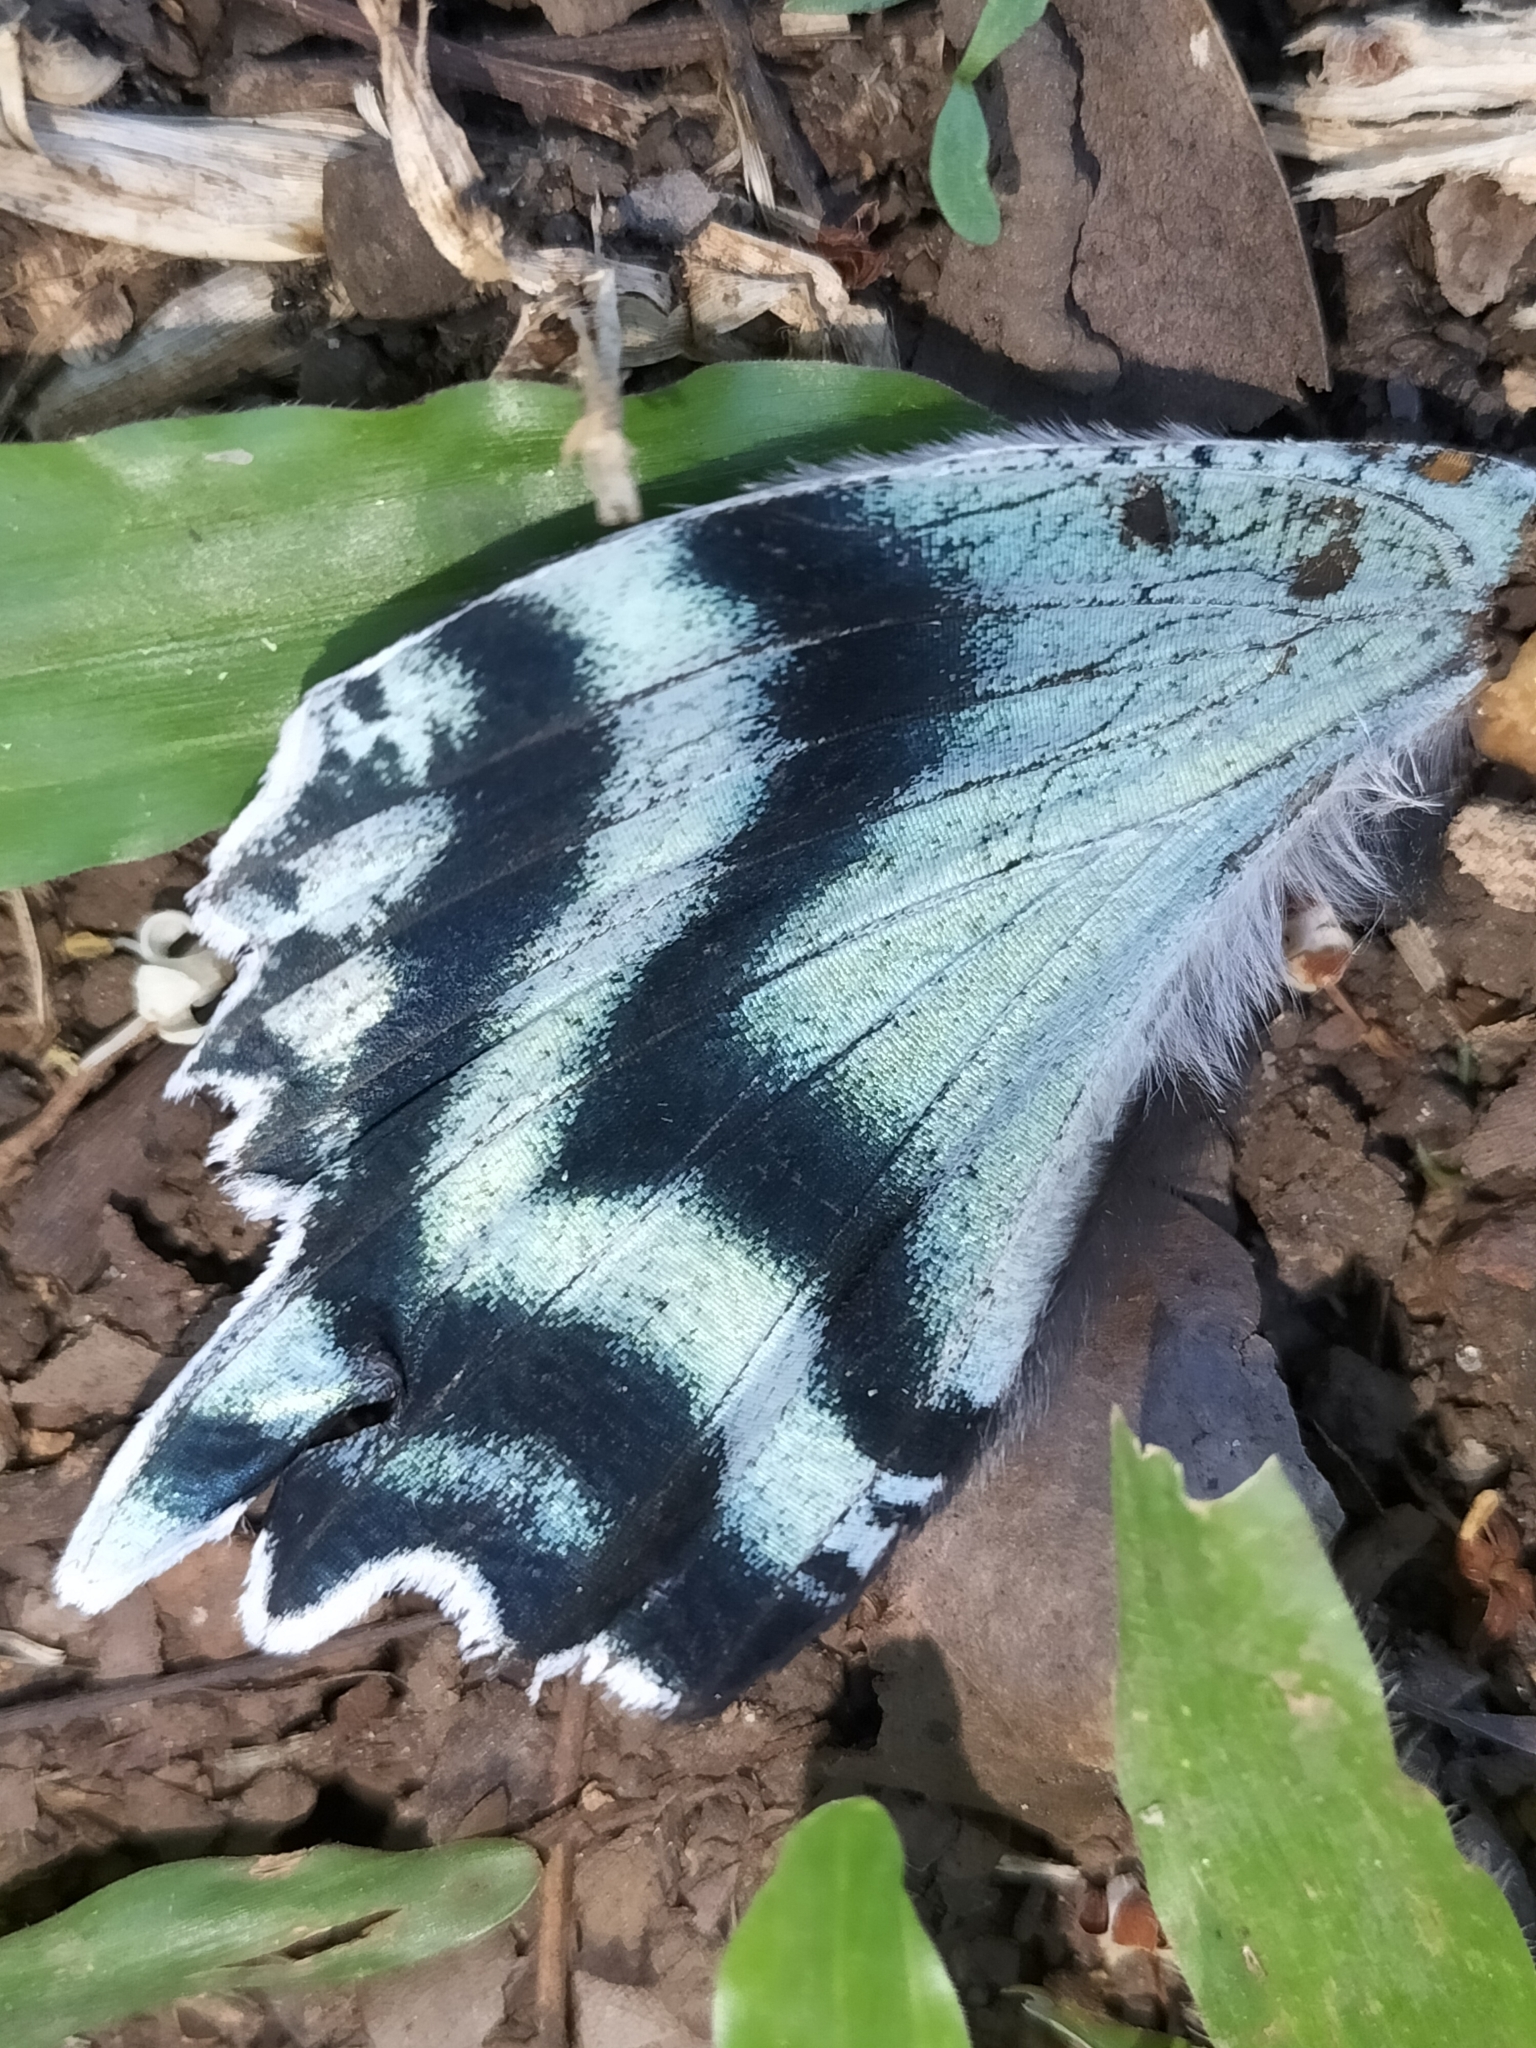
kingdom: Animalia
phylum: Arthropoda
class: Insecta
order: Lepidoptera
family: Uraniidae
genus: Alcides
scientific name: Alcides metaurus
